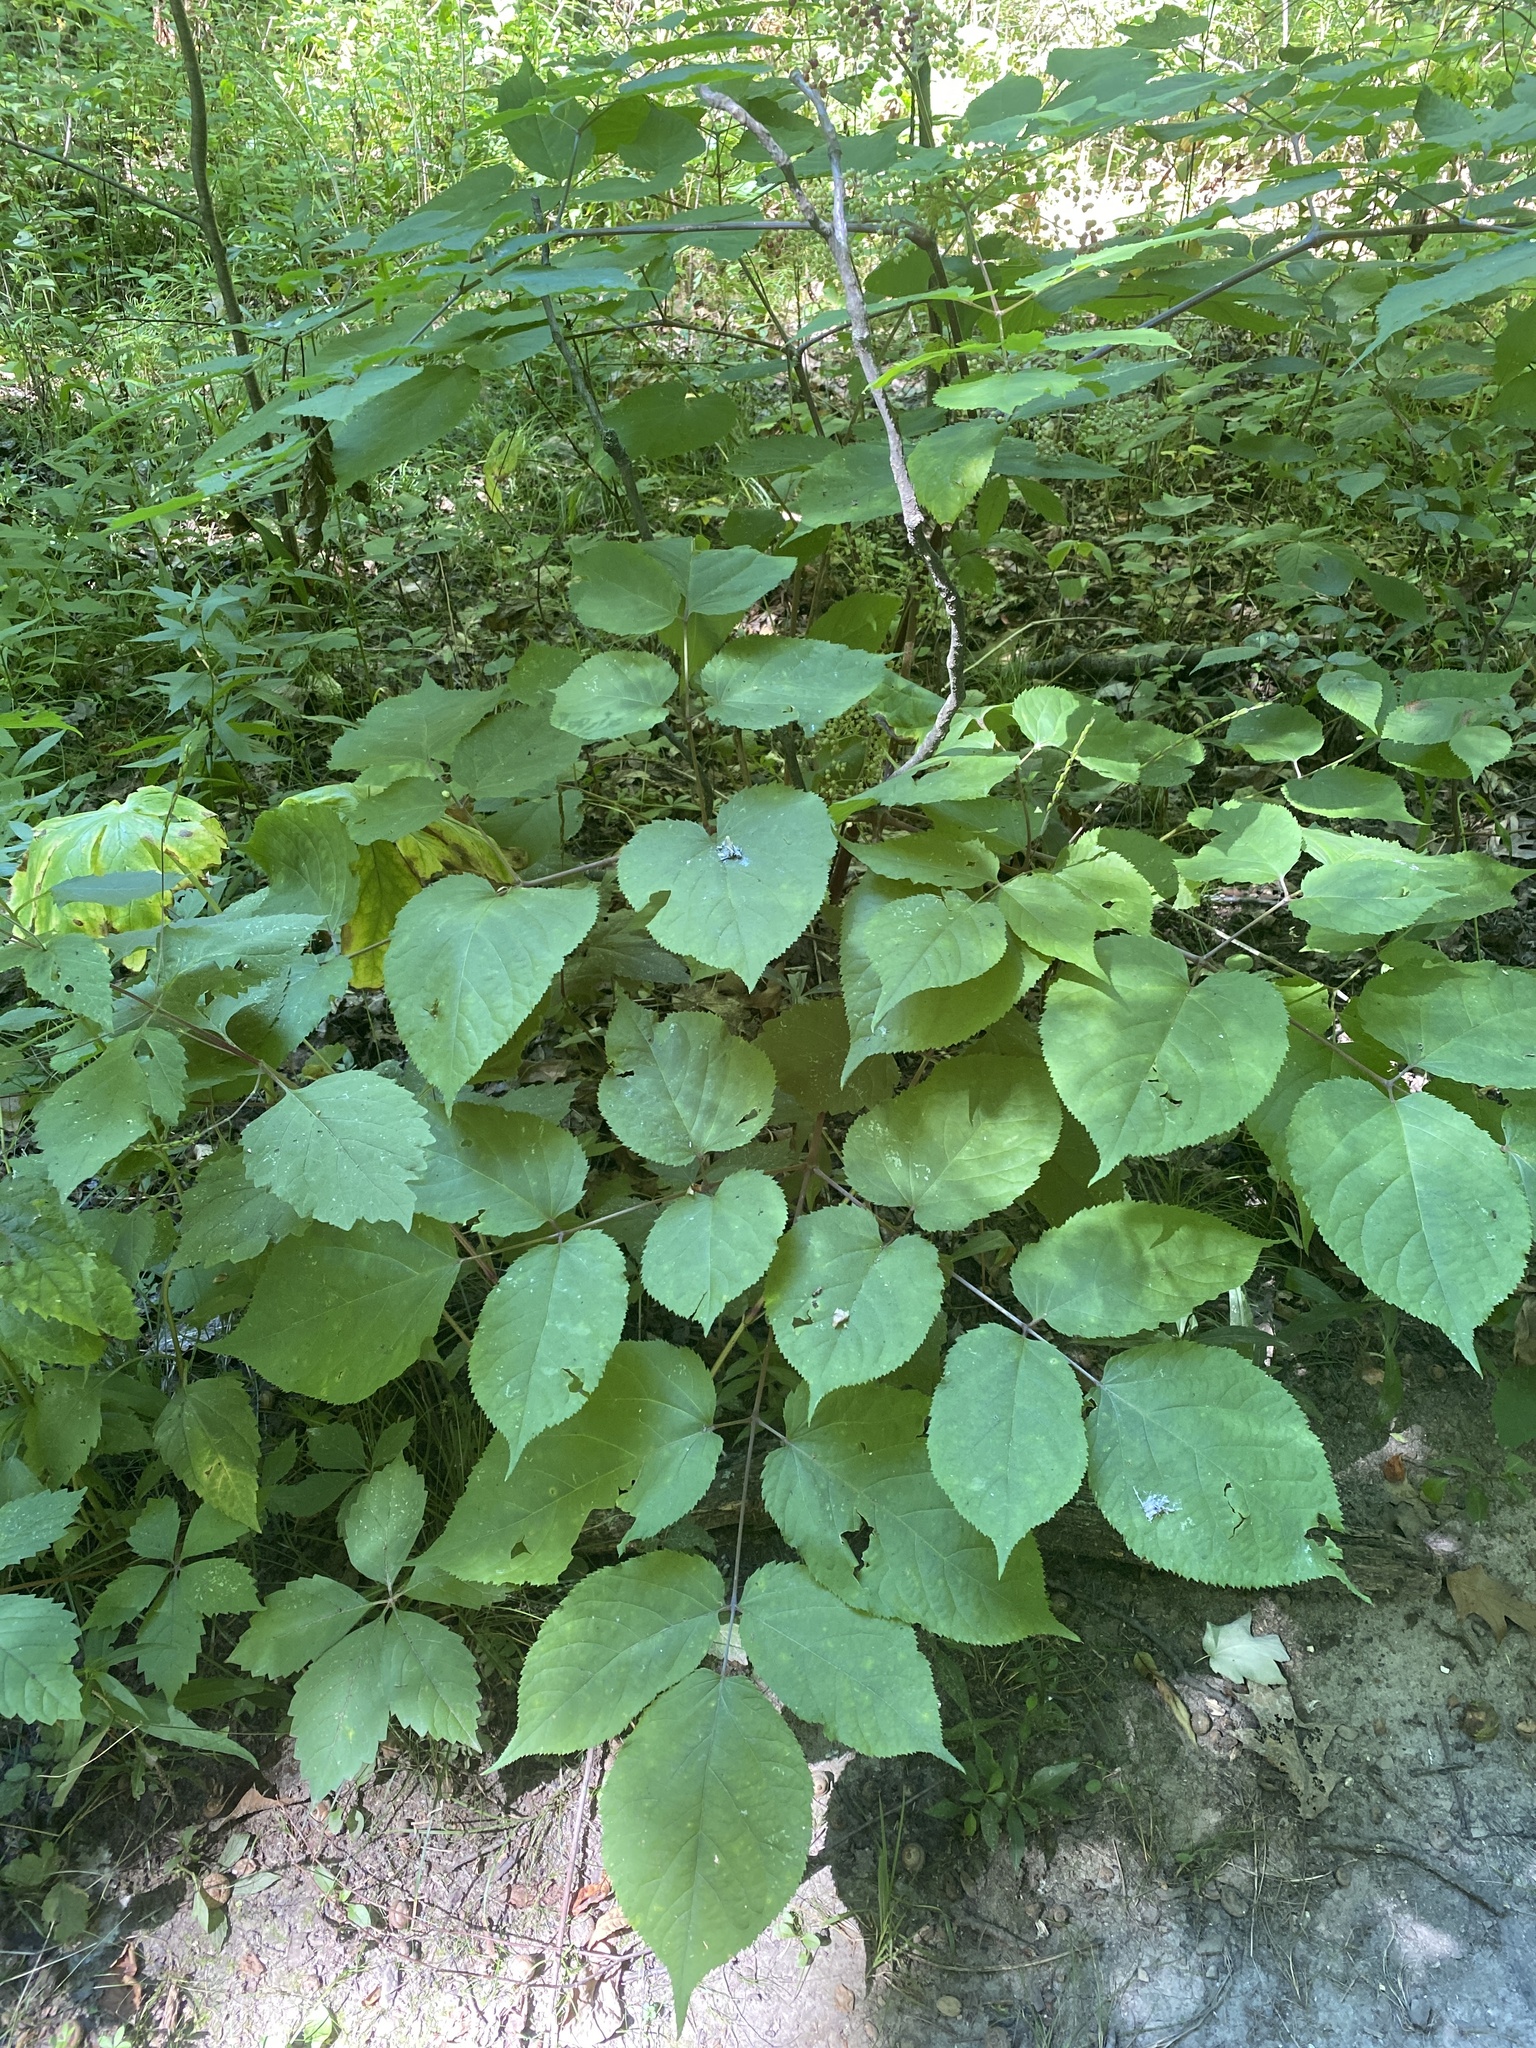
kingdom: Plantae
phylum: Tracheophyta
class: Magnoliopsida
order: Apiales
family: Araliaceae
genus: Aralia
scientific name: Aralia racemosa
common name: American-spikenard
